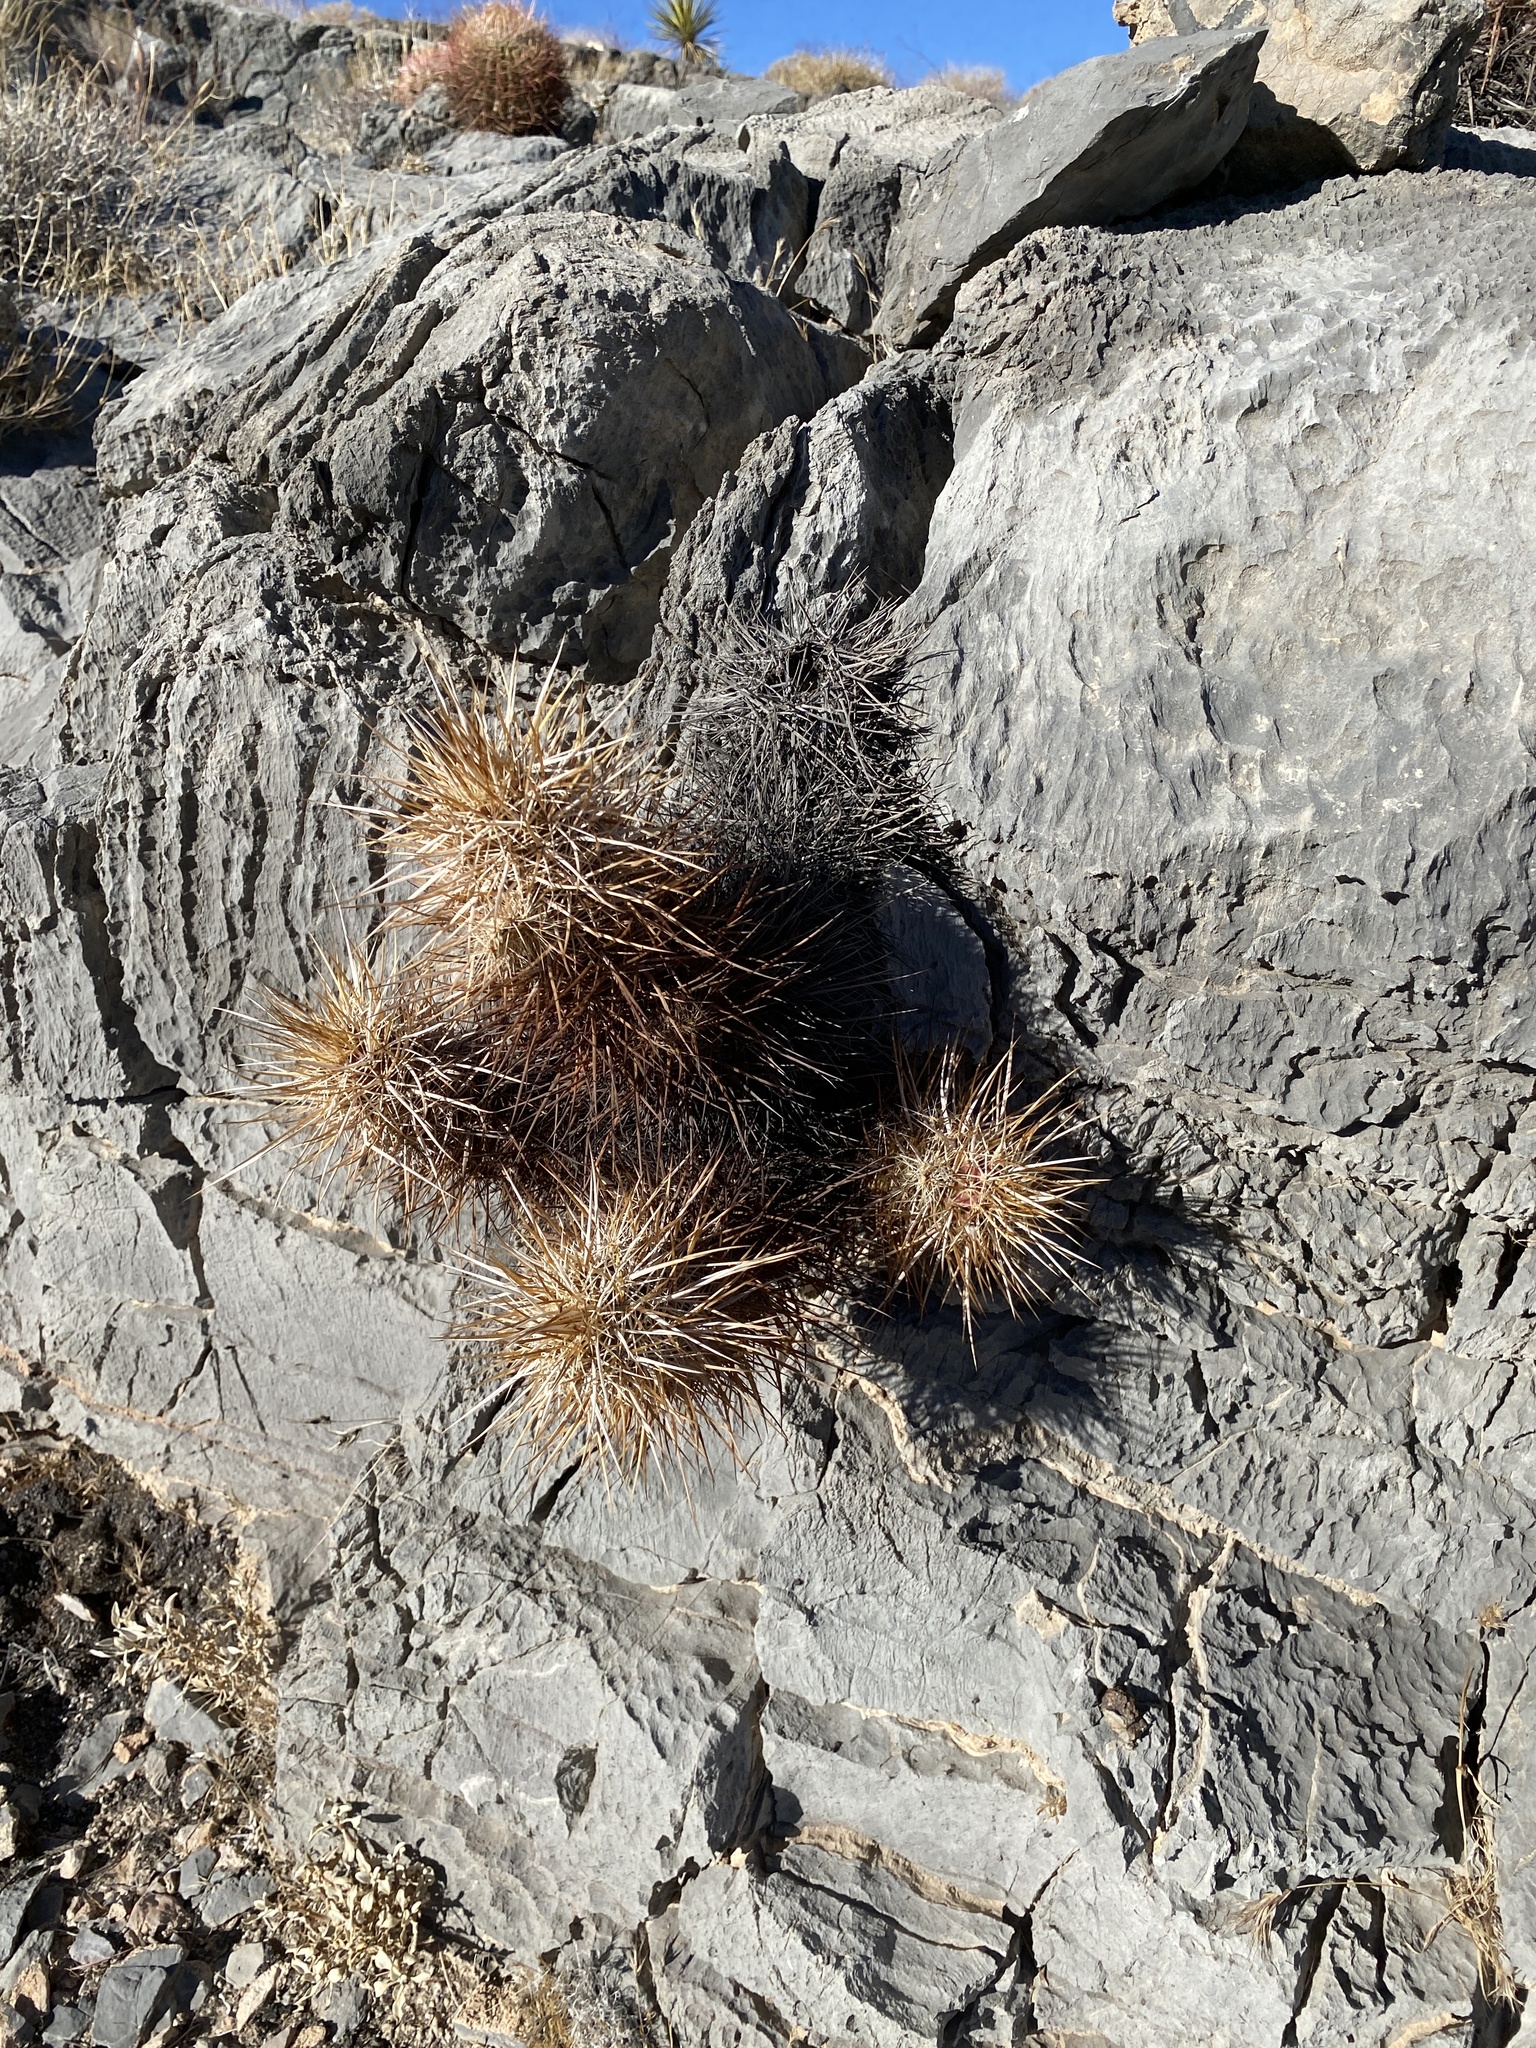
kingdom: Plantae
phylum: Tracheophyta
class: Magnoliopsida
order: Caryophyllales
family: Cactaceae
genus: Echinocereus
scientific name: Echinocereus engelmannii
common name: Engelmann's hedgehog cactus
